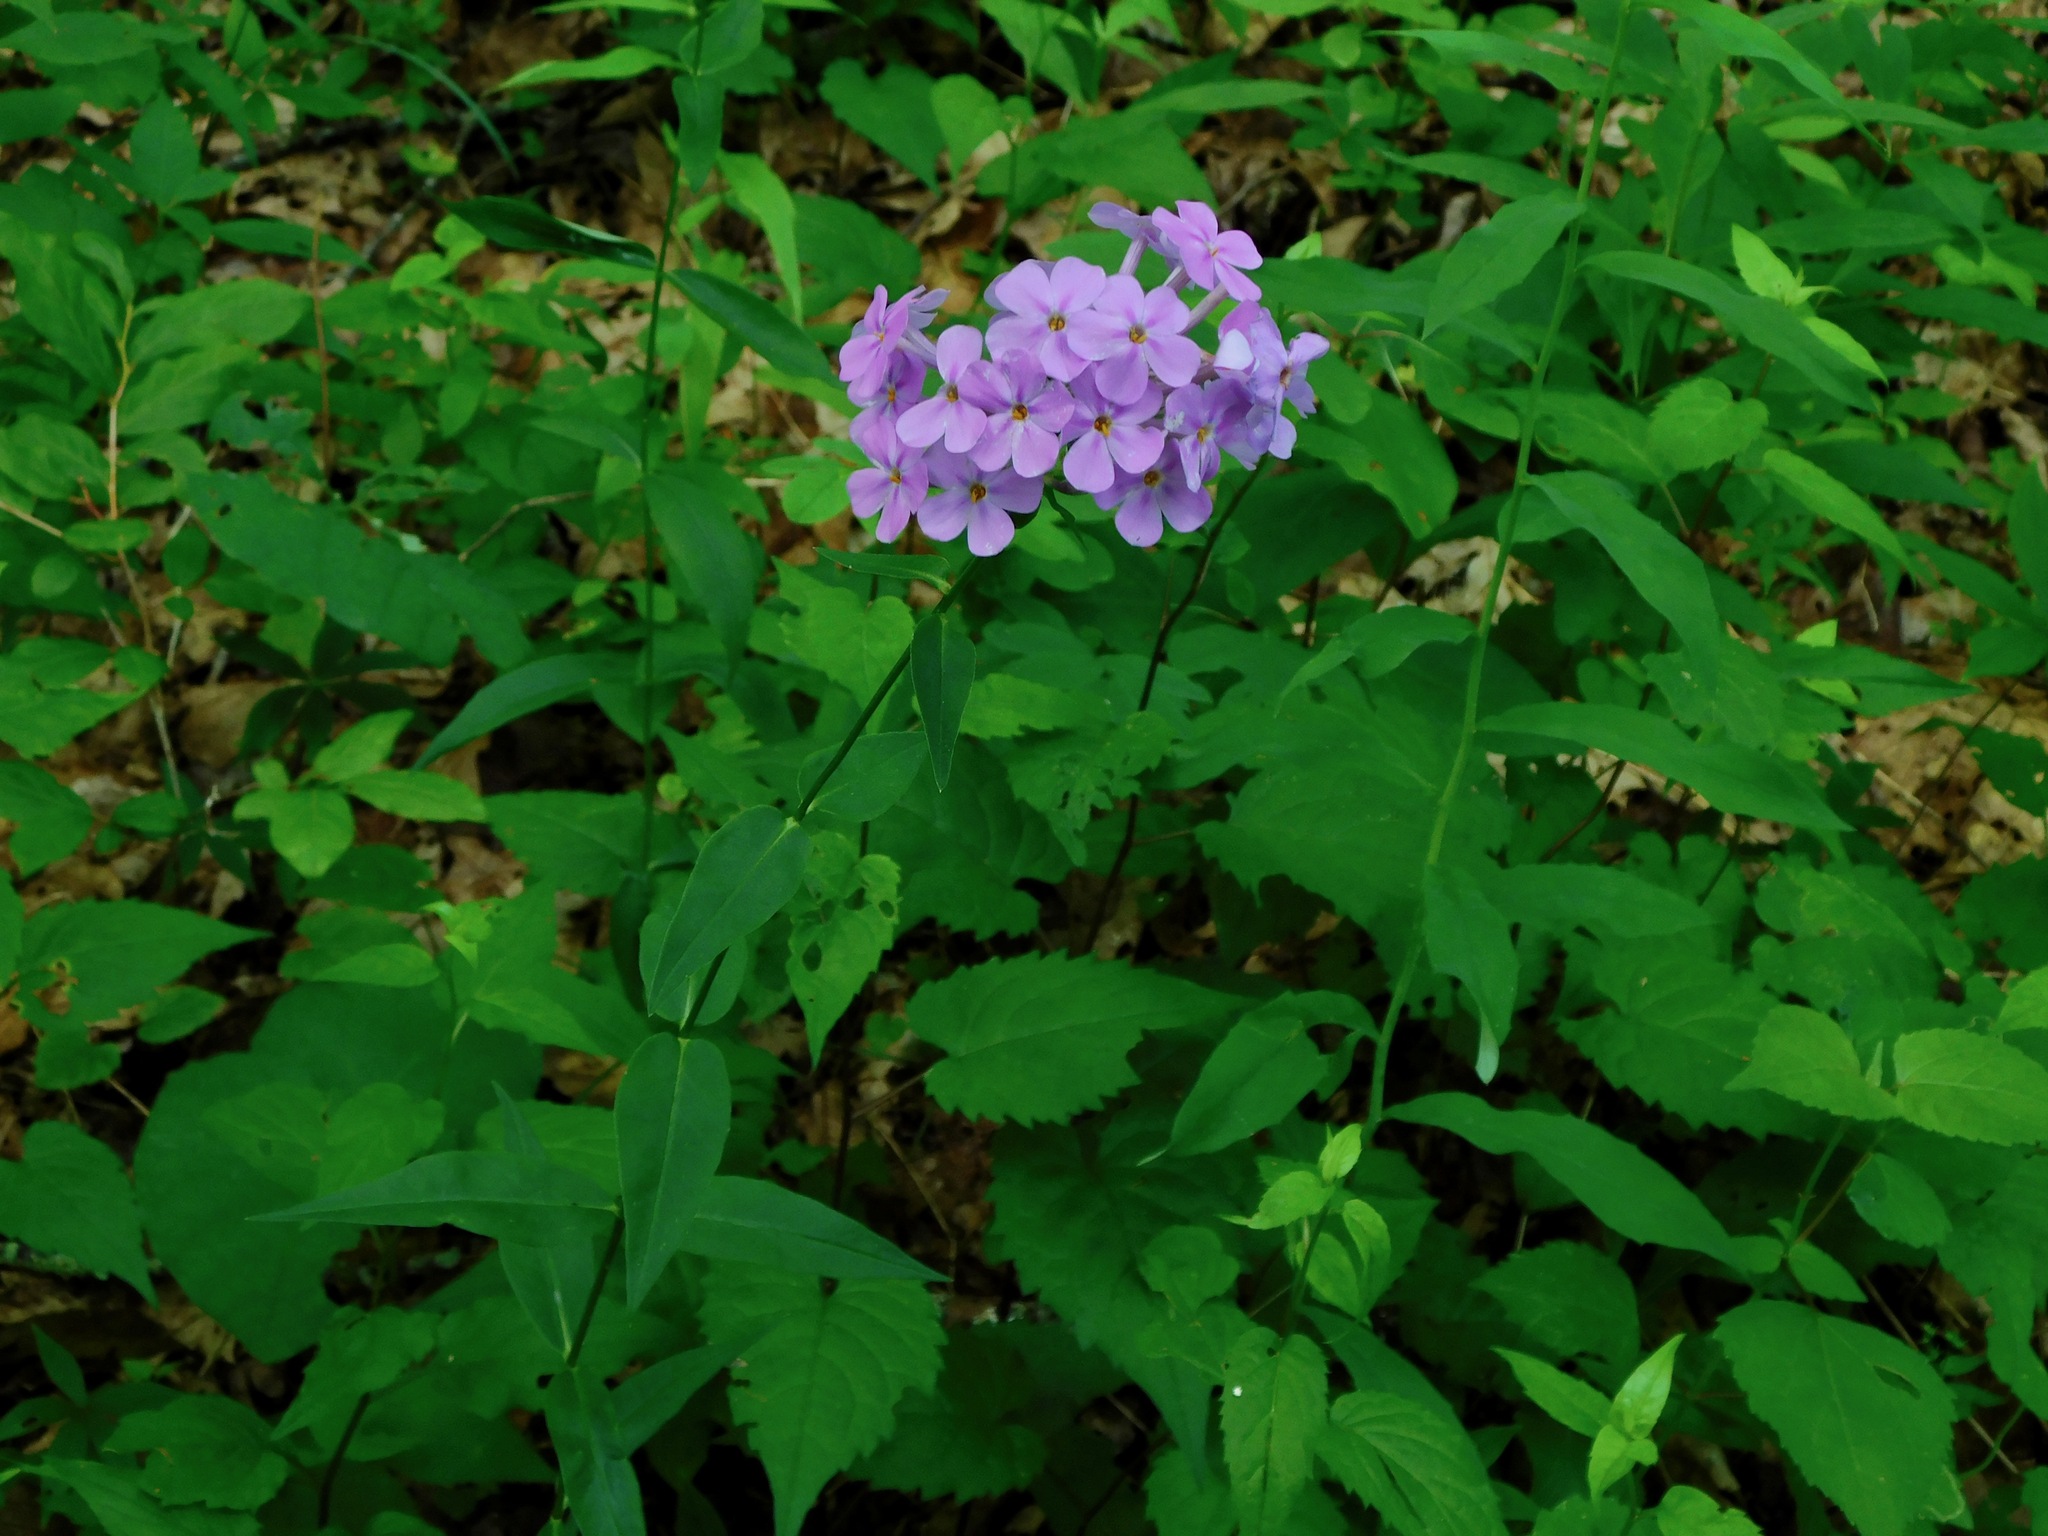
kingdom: Plantae
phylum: Tracheophyta
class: Magnoliopsida
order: Ericales
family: Polemoniaceae
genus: Phlox
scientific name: Phlox carolina
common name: Thick-leaf phlox
